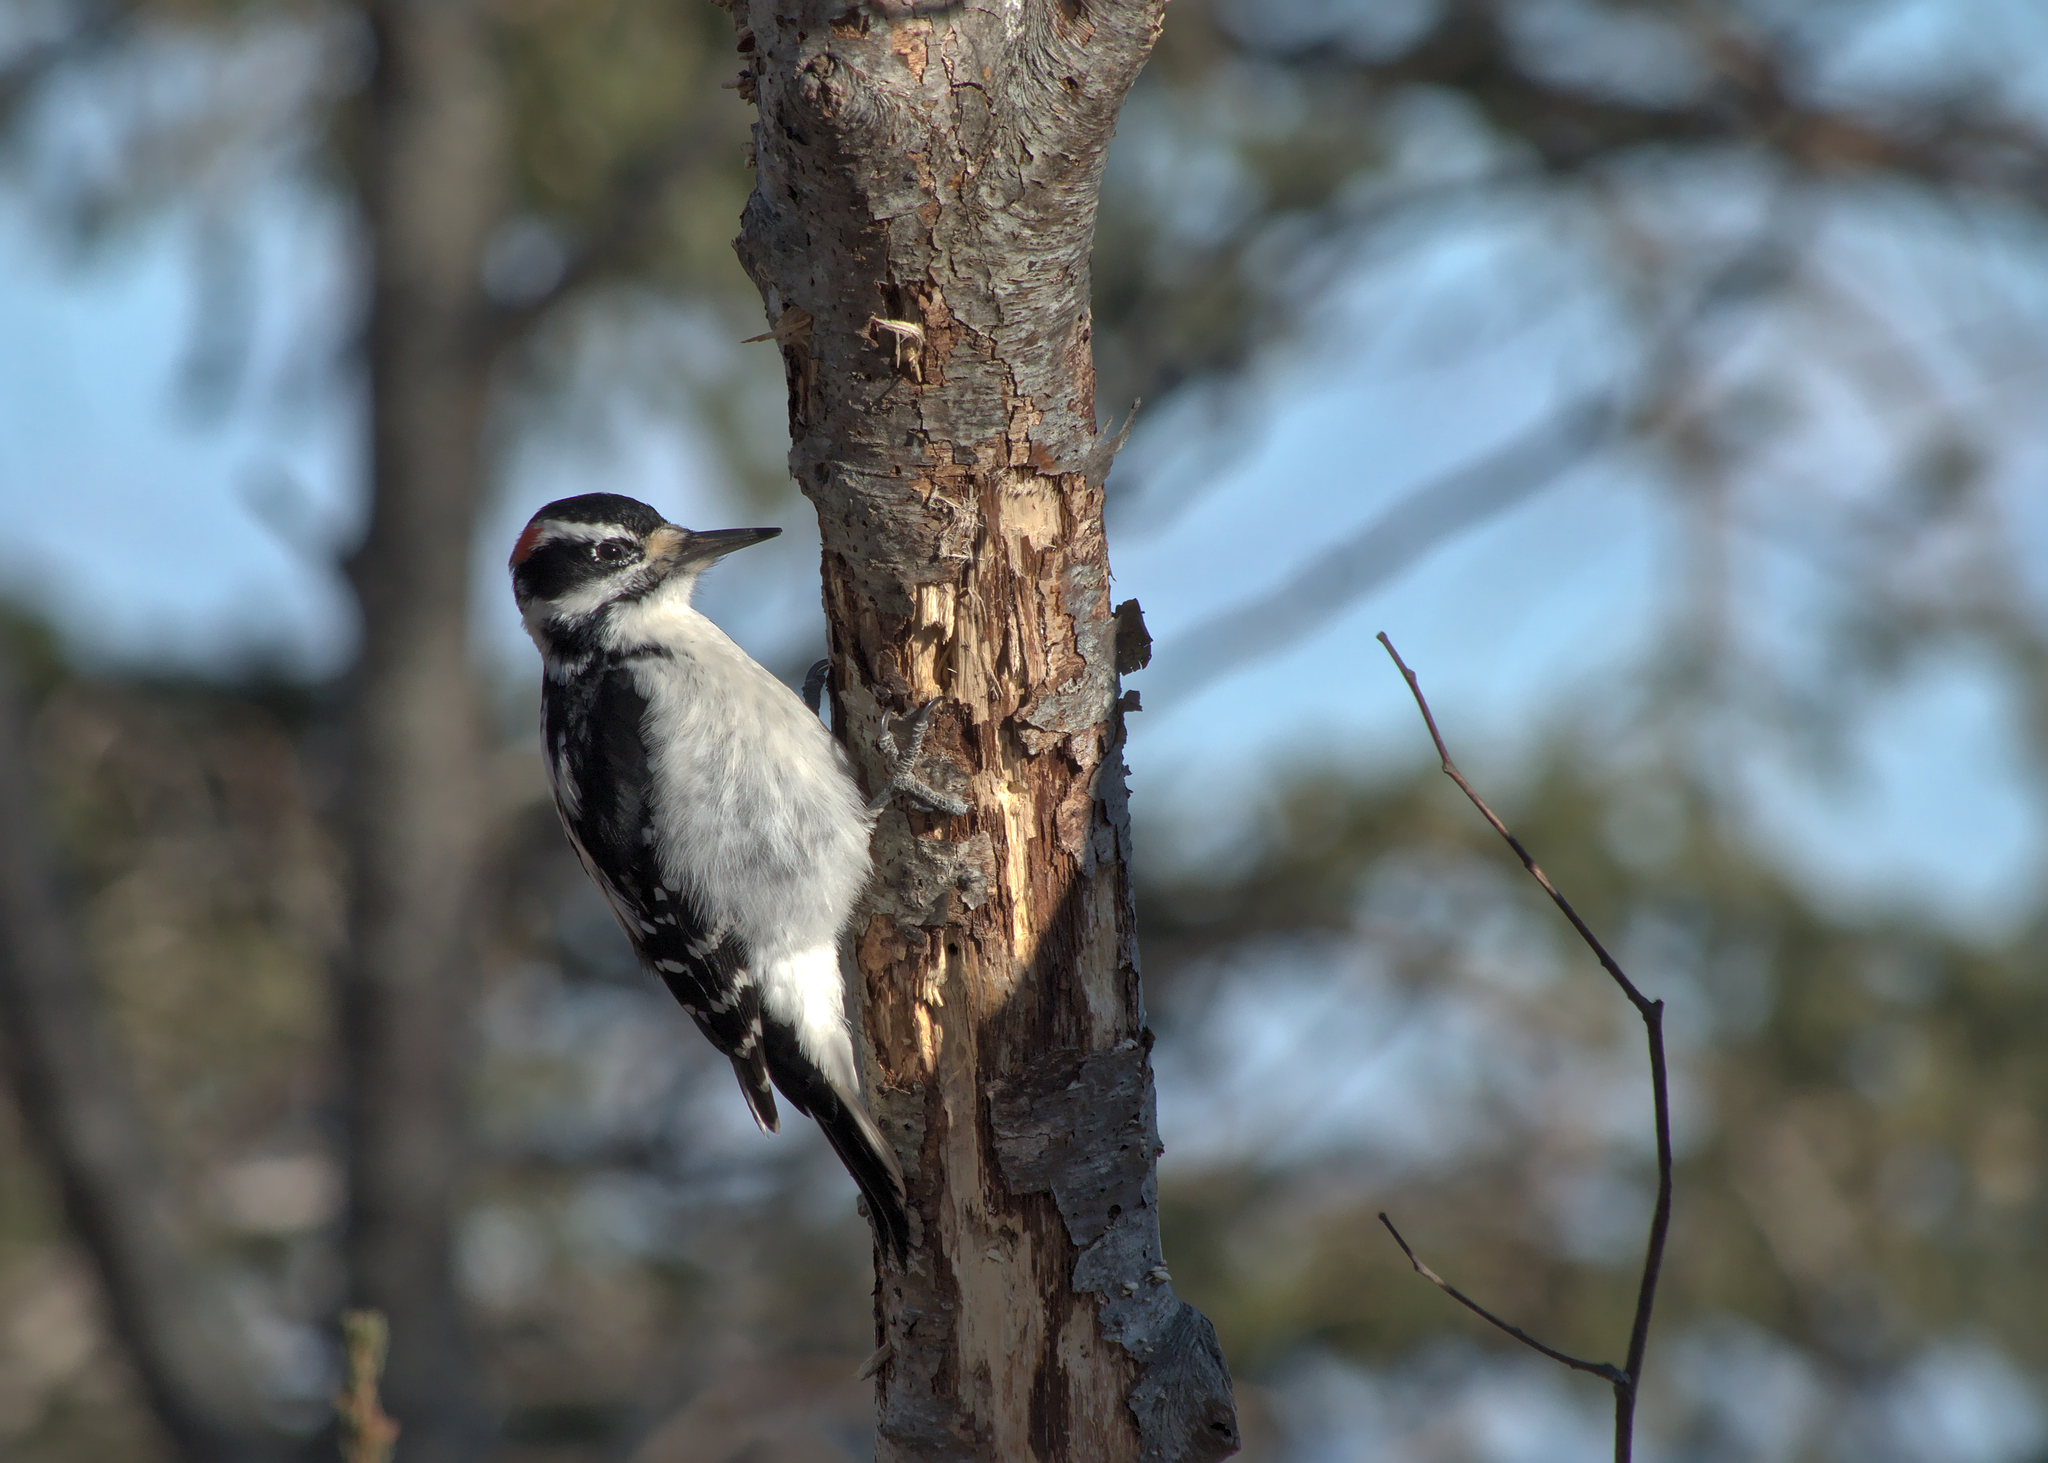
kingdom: Animalia
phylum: Chordata
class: Aves
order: Piciformes
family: Picidae
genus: Leuconotopicus
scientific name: Leuconotopicus villosus
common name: Hairy woodpecker
